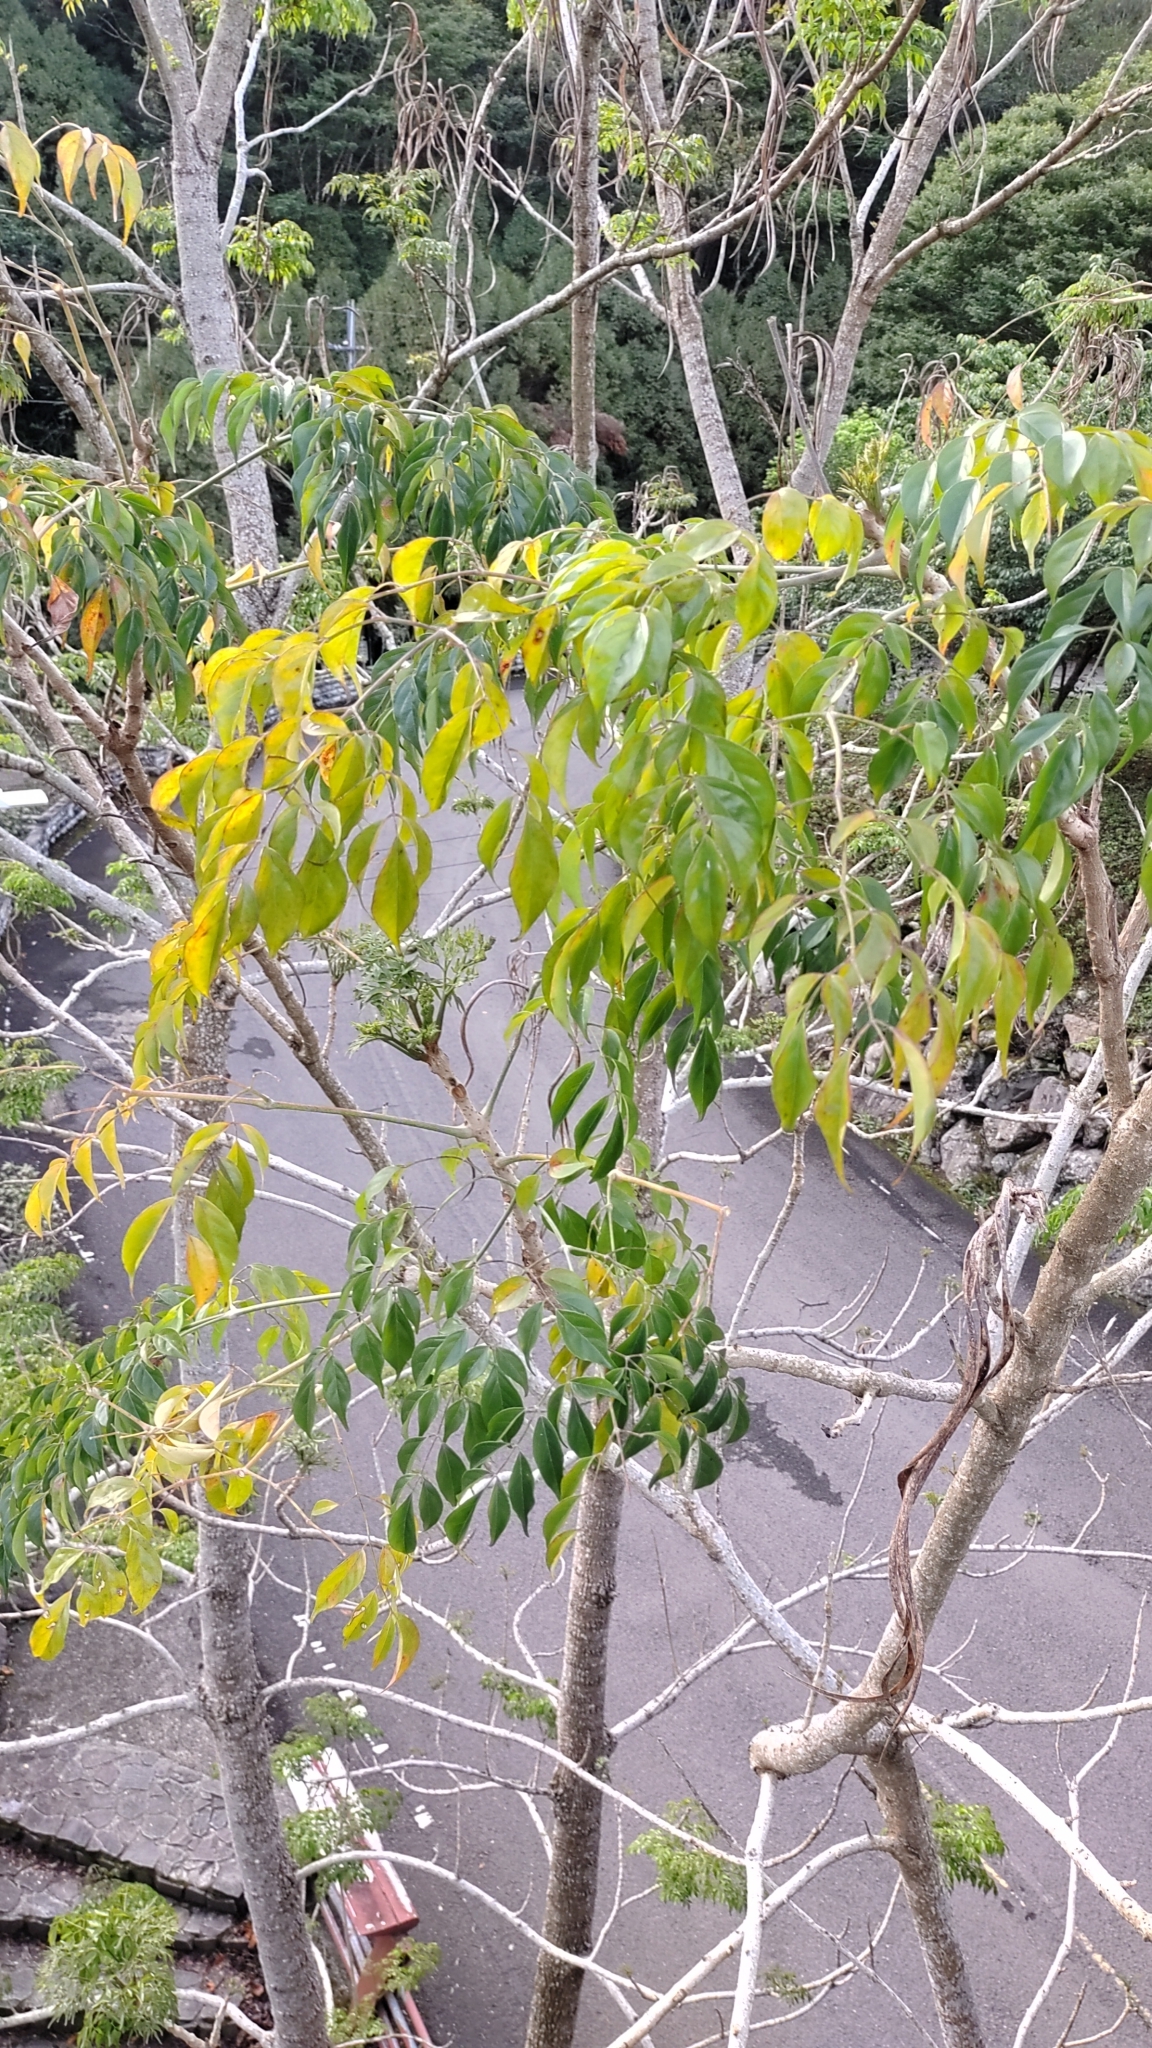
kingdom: Plantae
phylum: Tracheophyta
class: Magnoliopsida
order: Lamiales
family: Bignoniaceae
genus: Radermachera
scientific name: Radermachera sinica
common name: China doll plant
